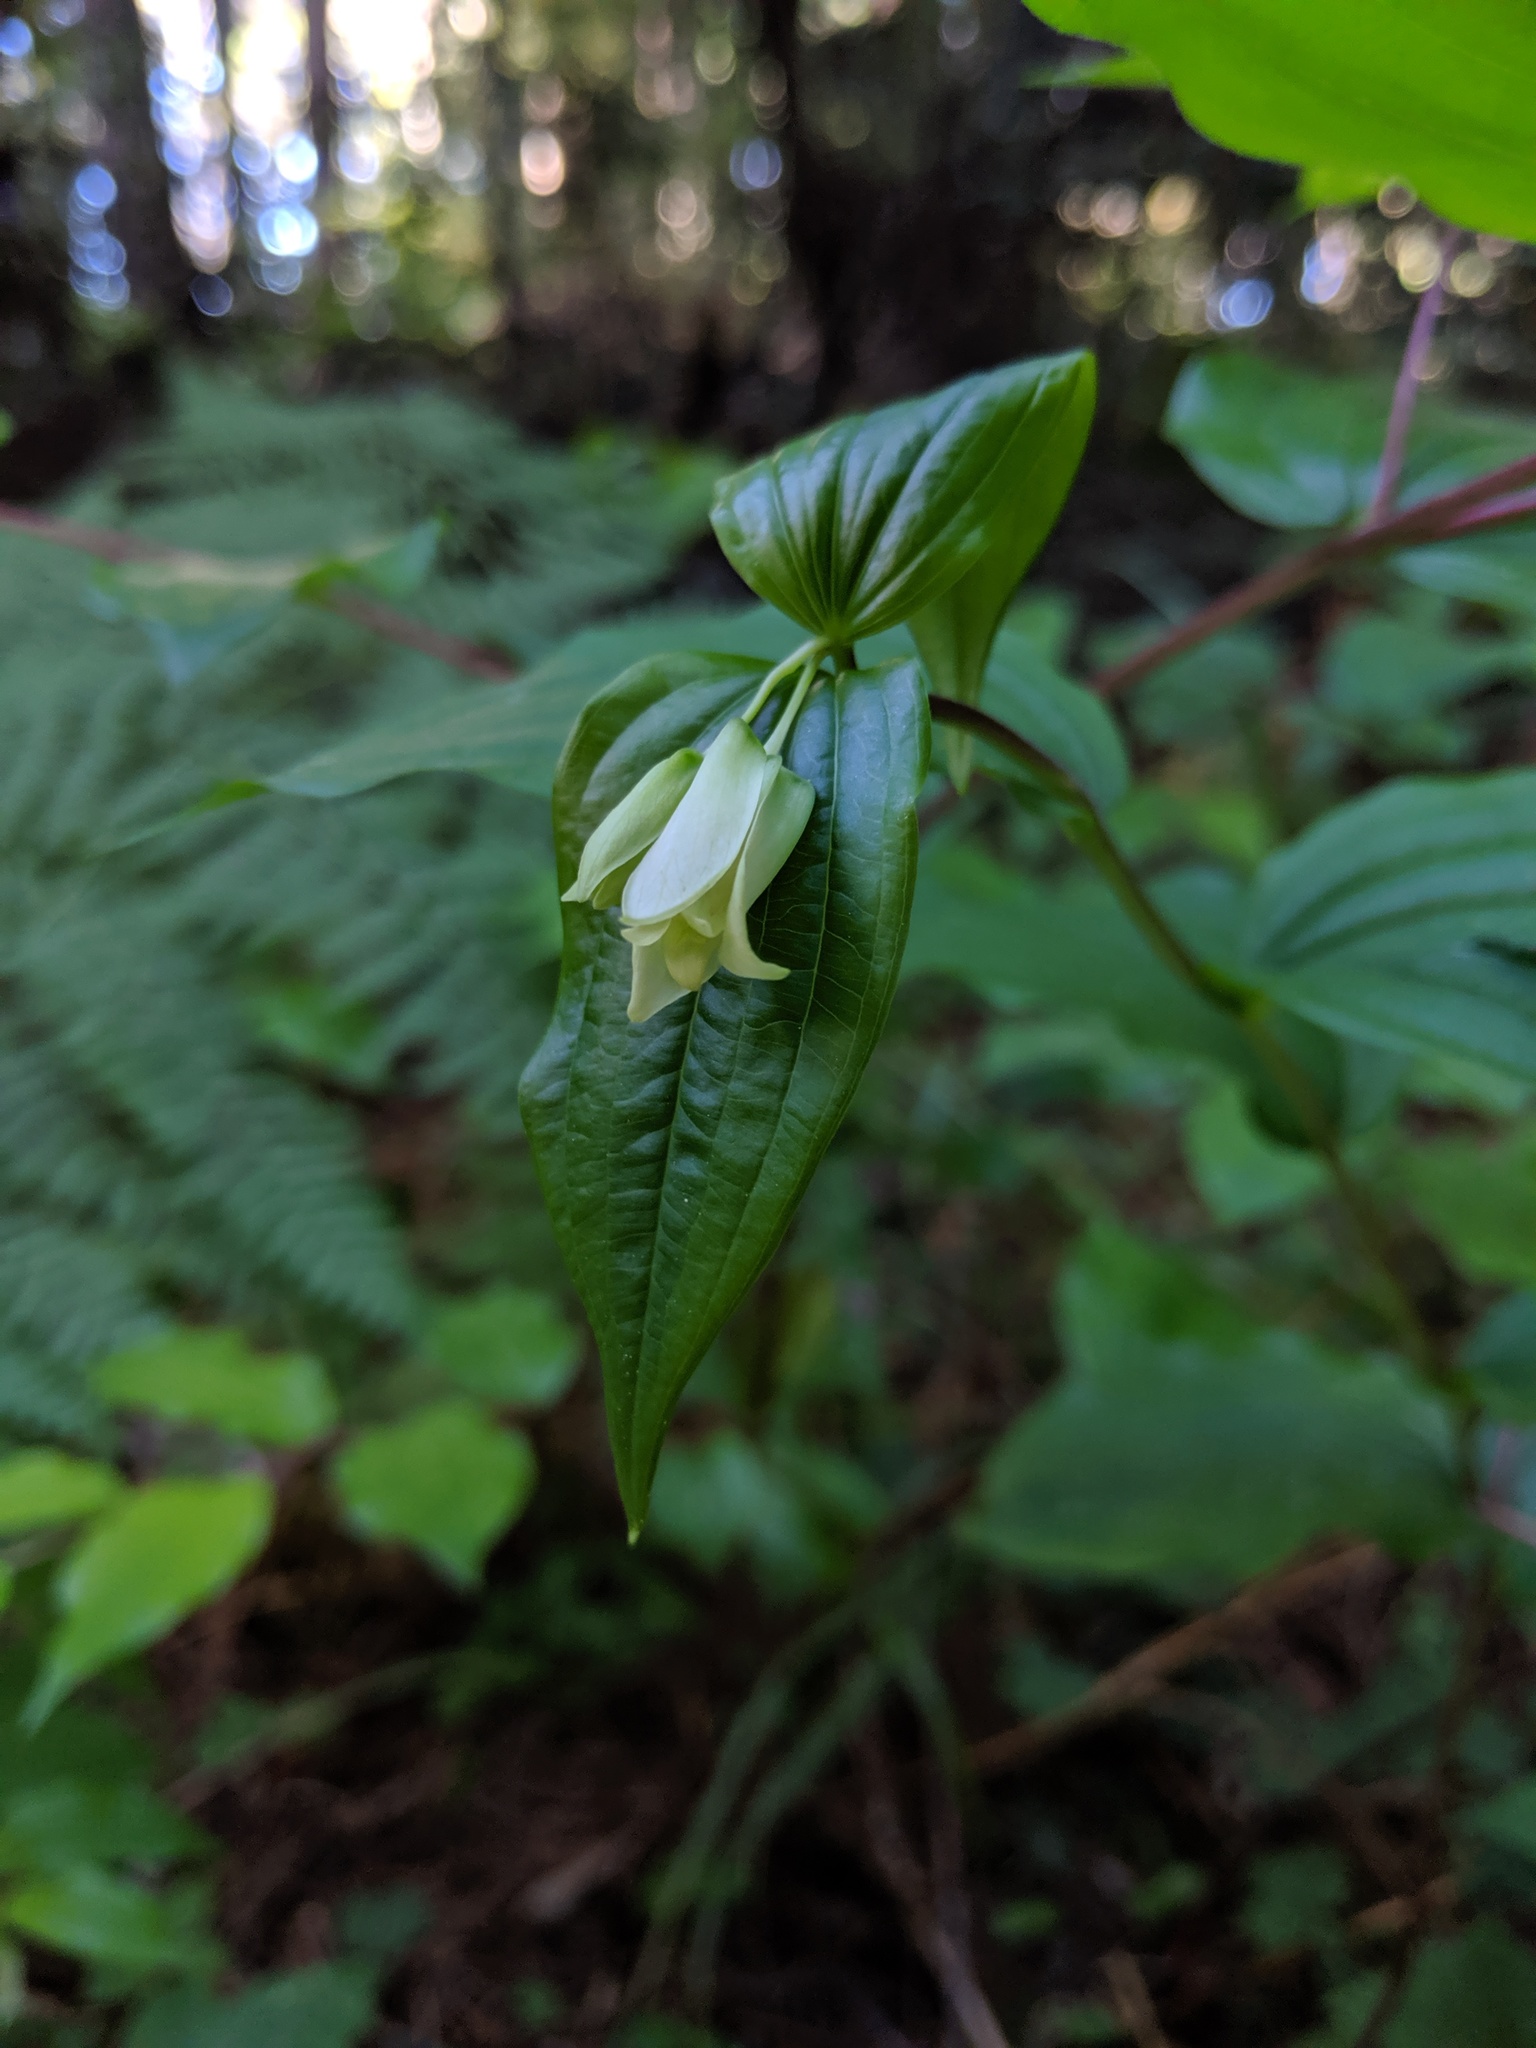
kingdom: Plantae
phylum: Tracheophyta
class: Liliopsida
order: Liliales
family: Liliaceae
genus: Prosartes
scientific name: Prosartes smithii
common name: Fairy-lantern
